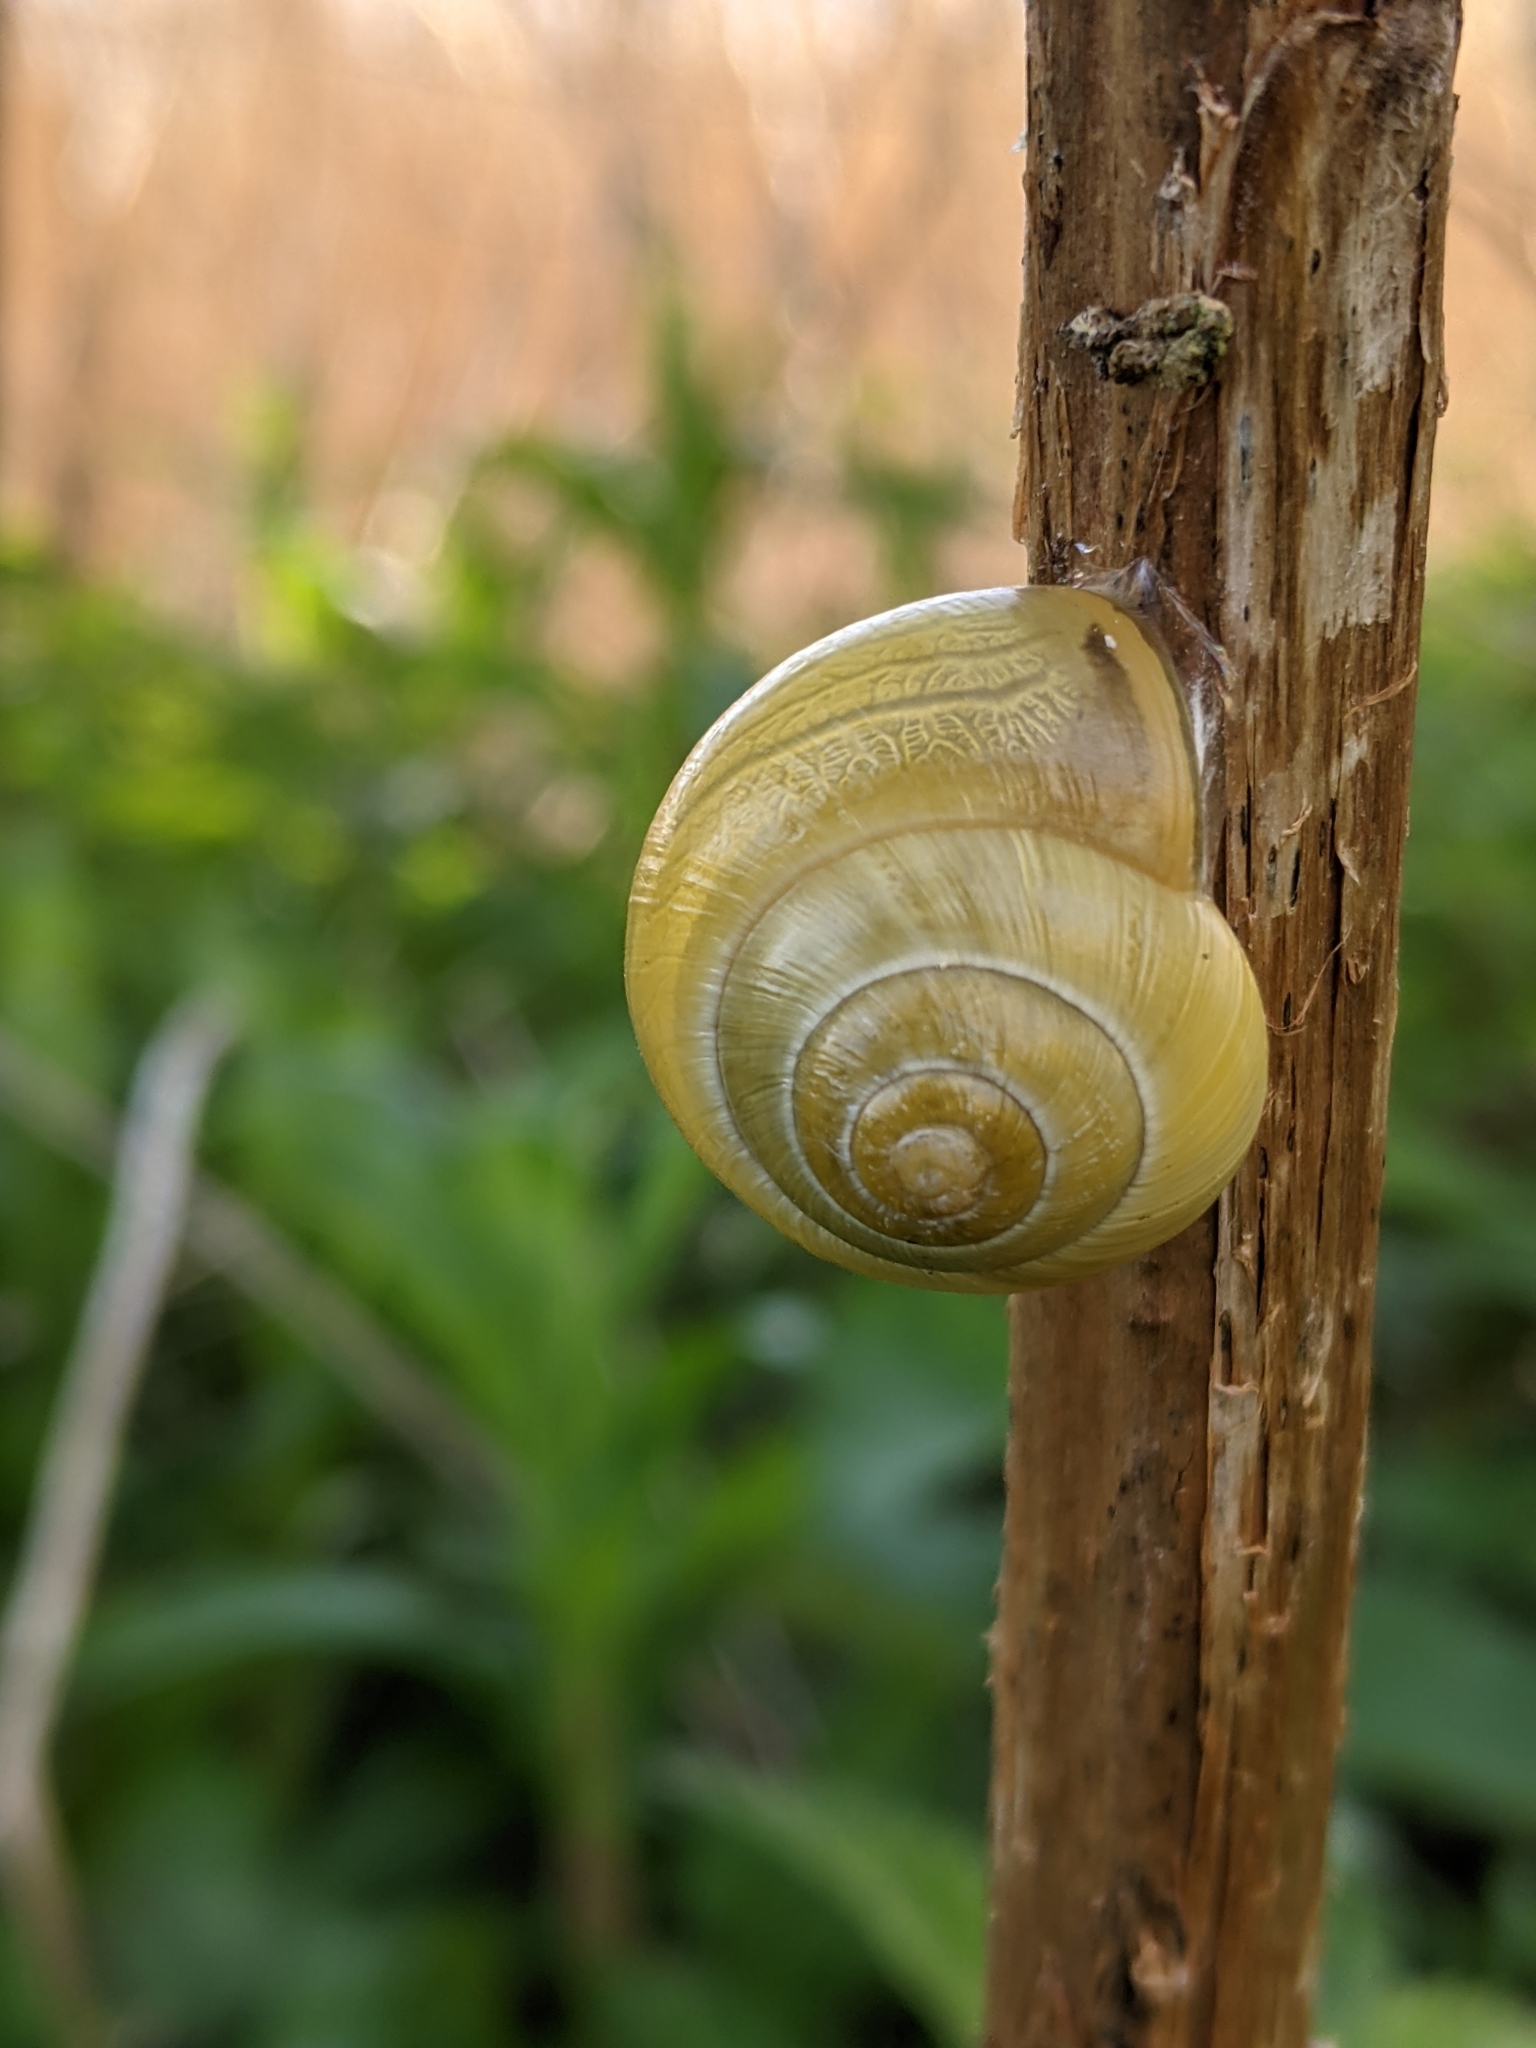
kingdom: Animalia
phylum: Mollusca
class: Gastropoda
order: Stylommatophora
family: Helicidae
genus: Cepaea
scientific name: Cepaea nemoralis
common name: Grovesnail
